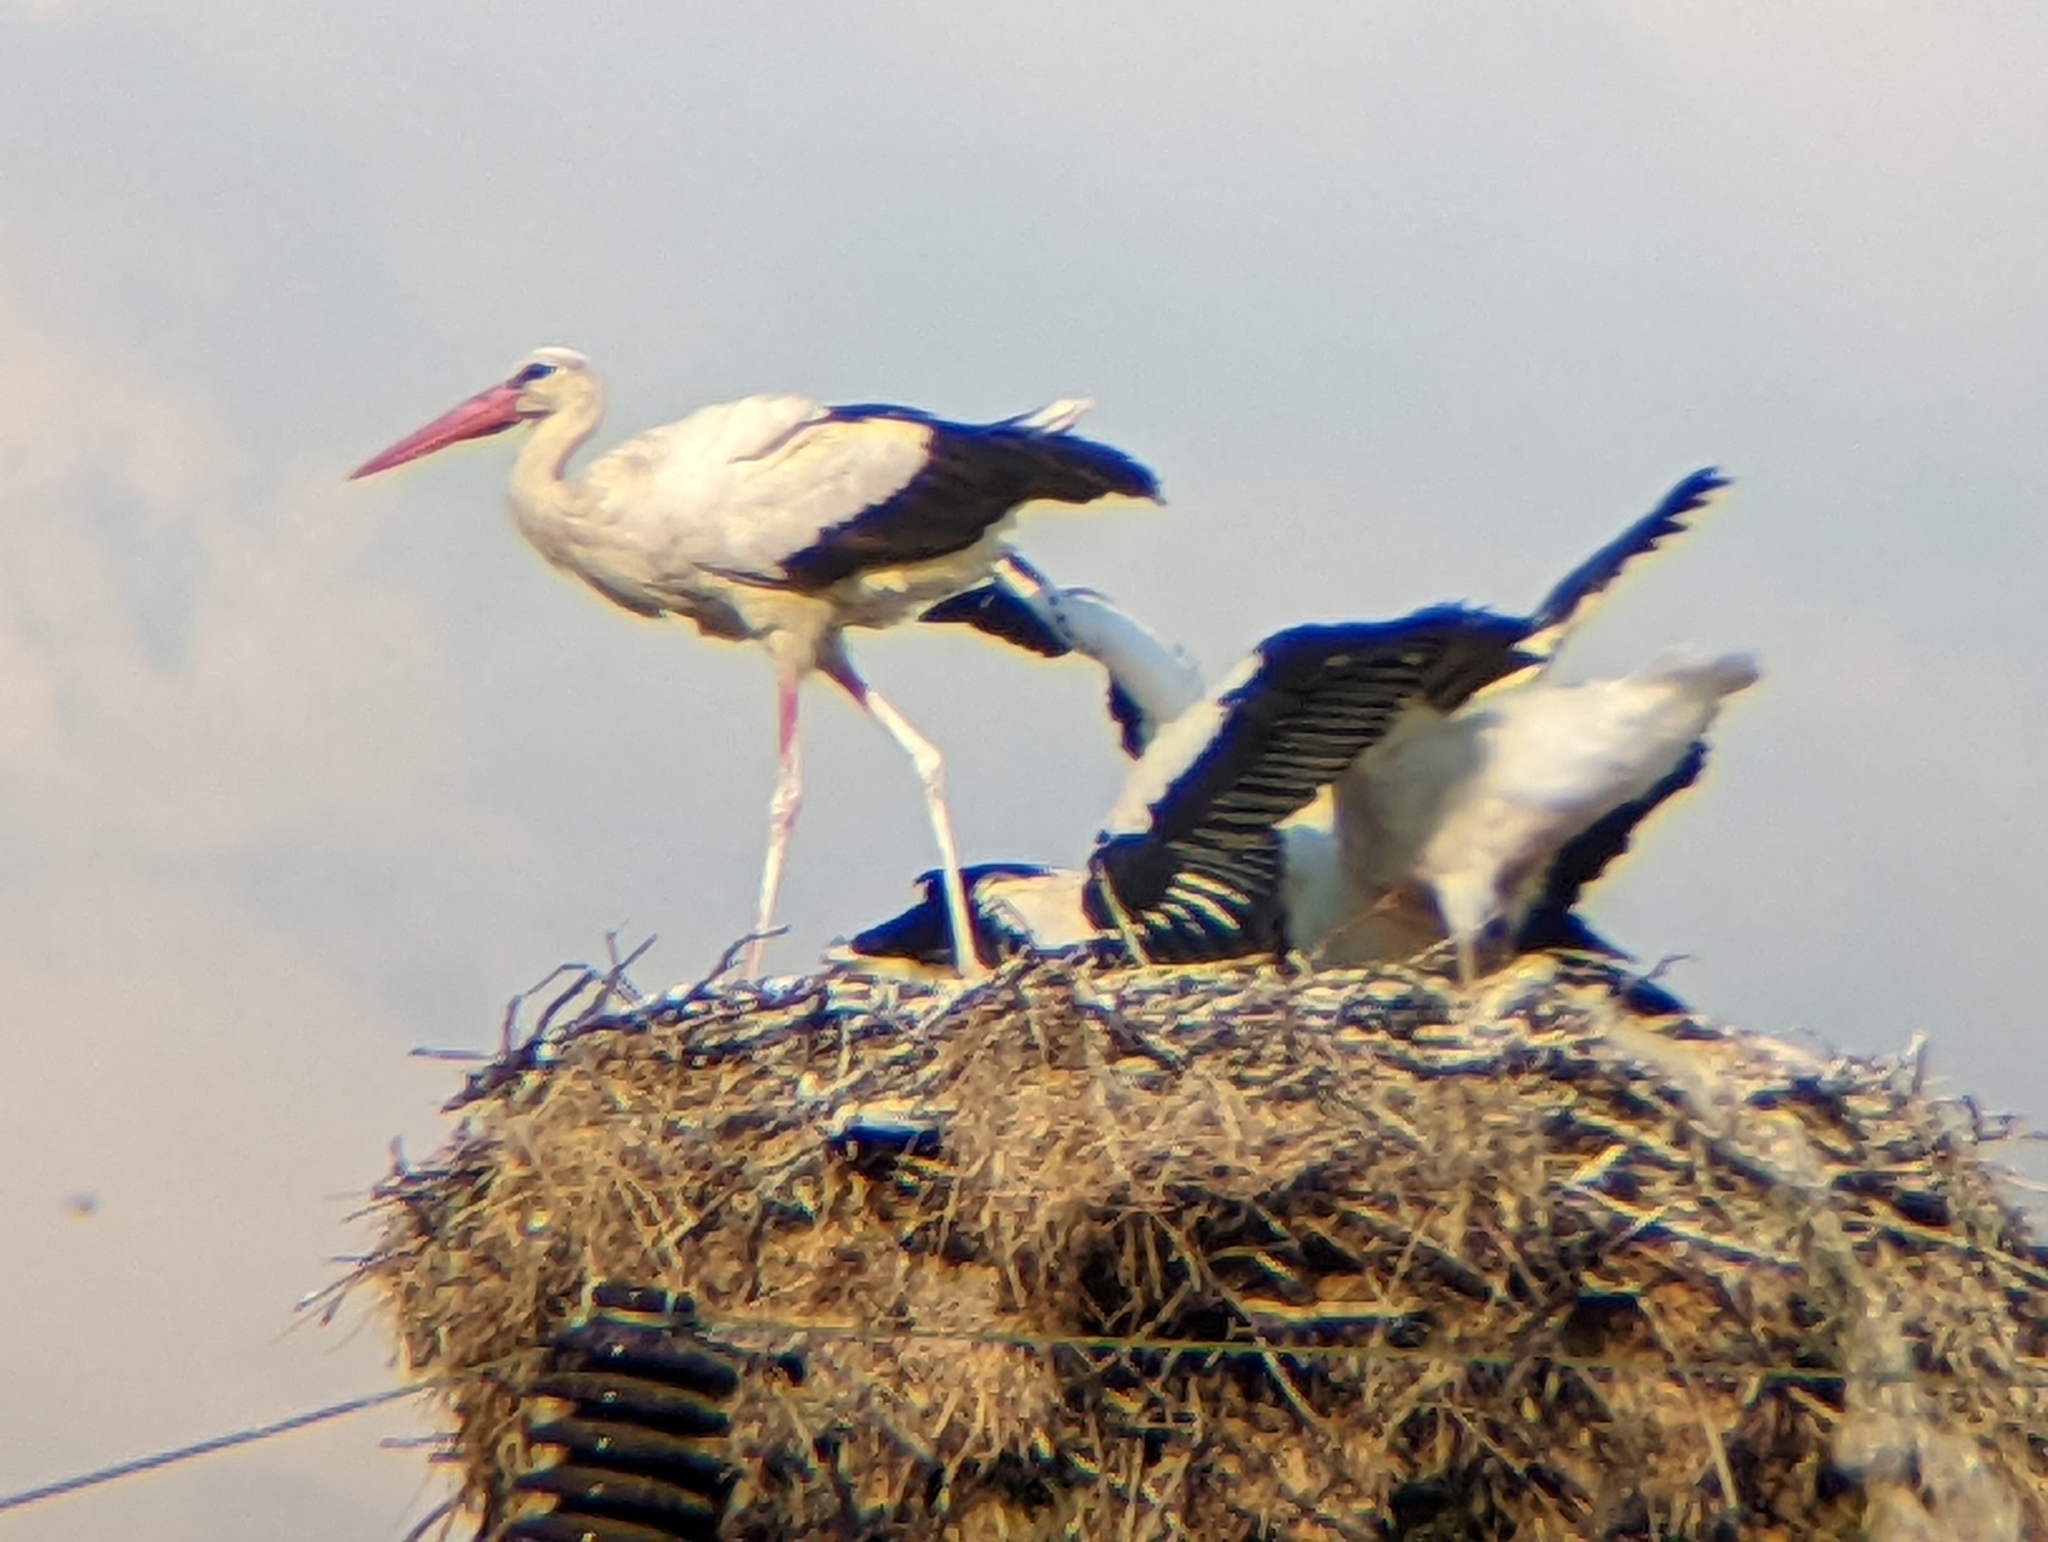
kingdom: Animalia
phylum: Chordata
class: Aves
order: Ciconiiformes
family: Ciconiidae
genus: Ciconia
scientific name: Ciconia ciconia
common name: White stork
